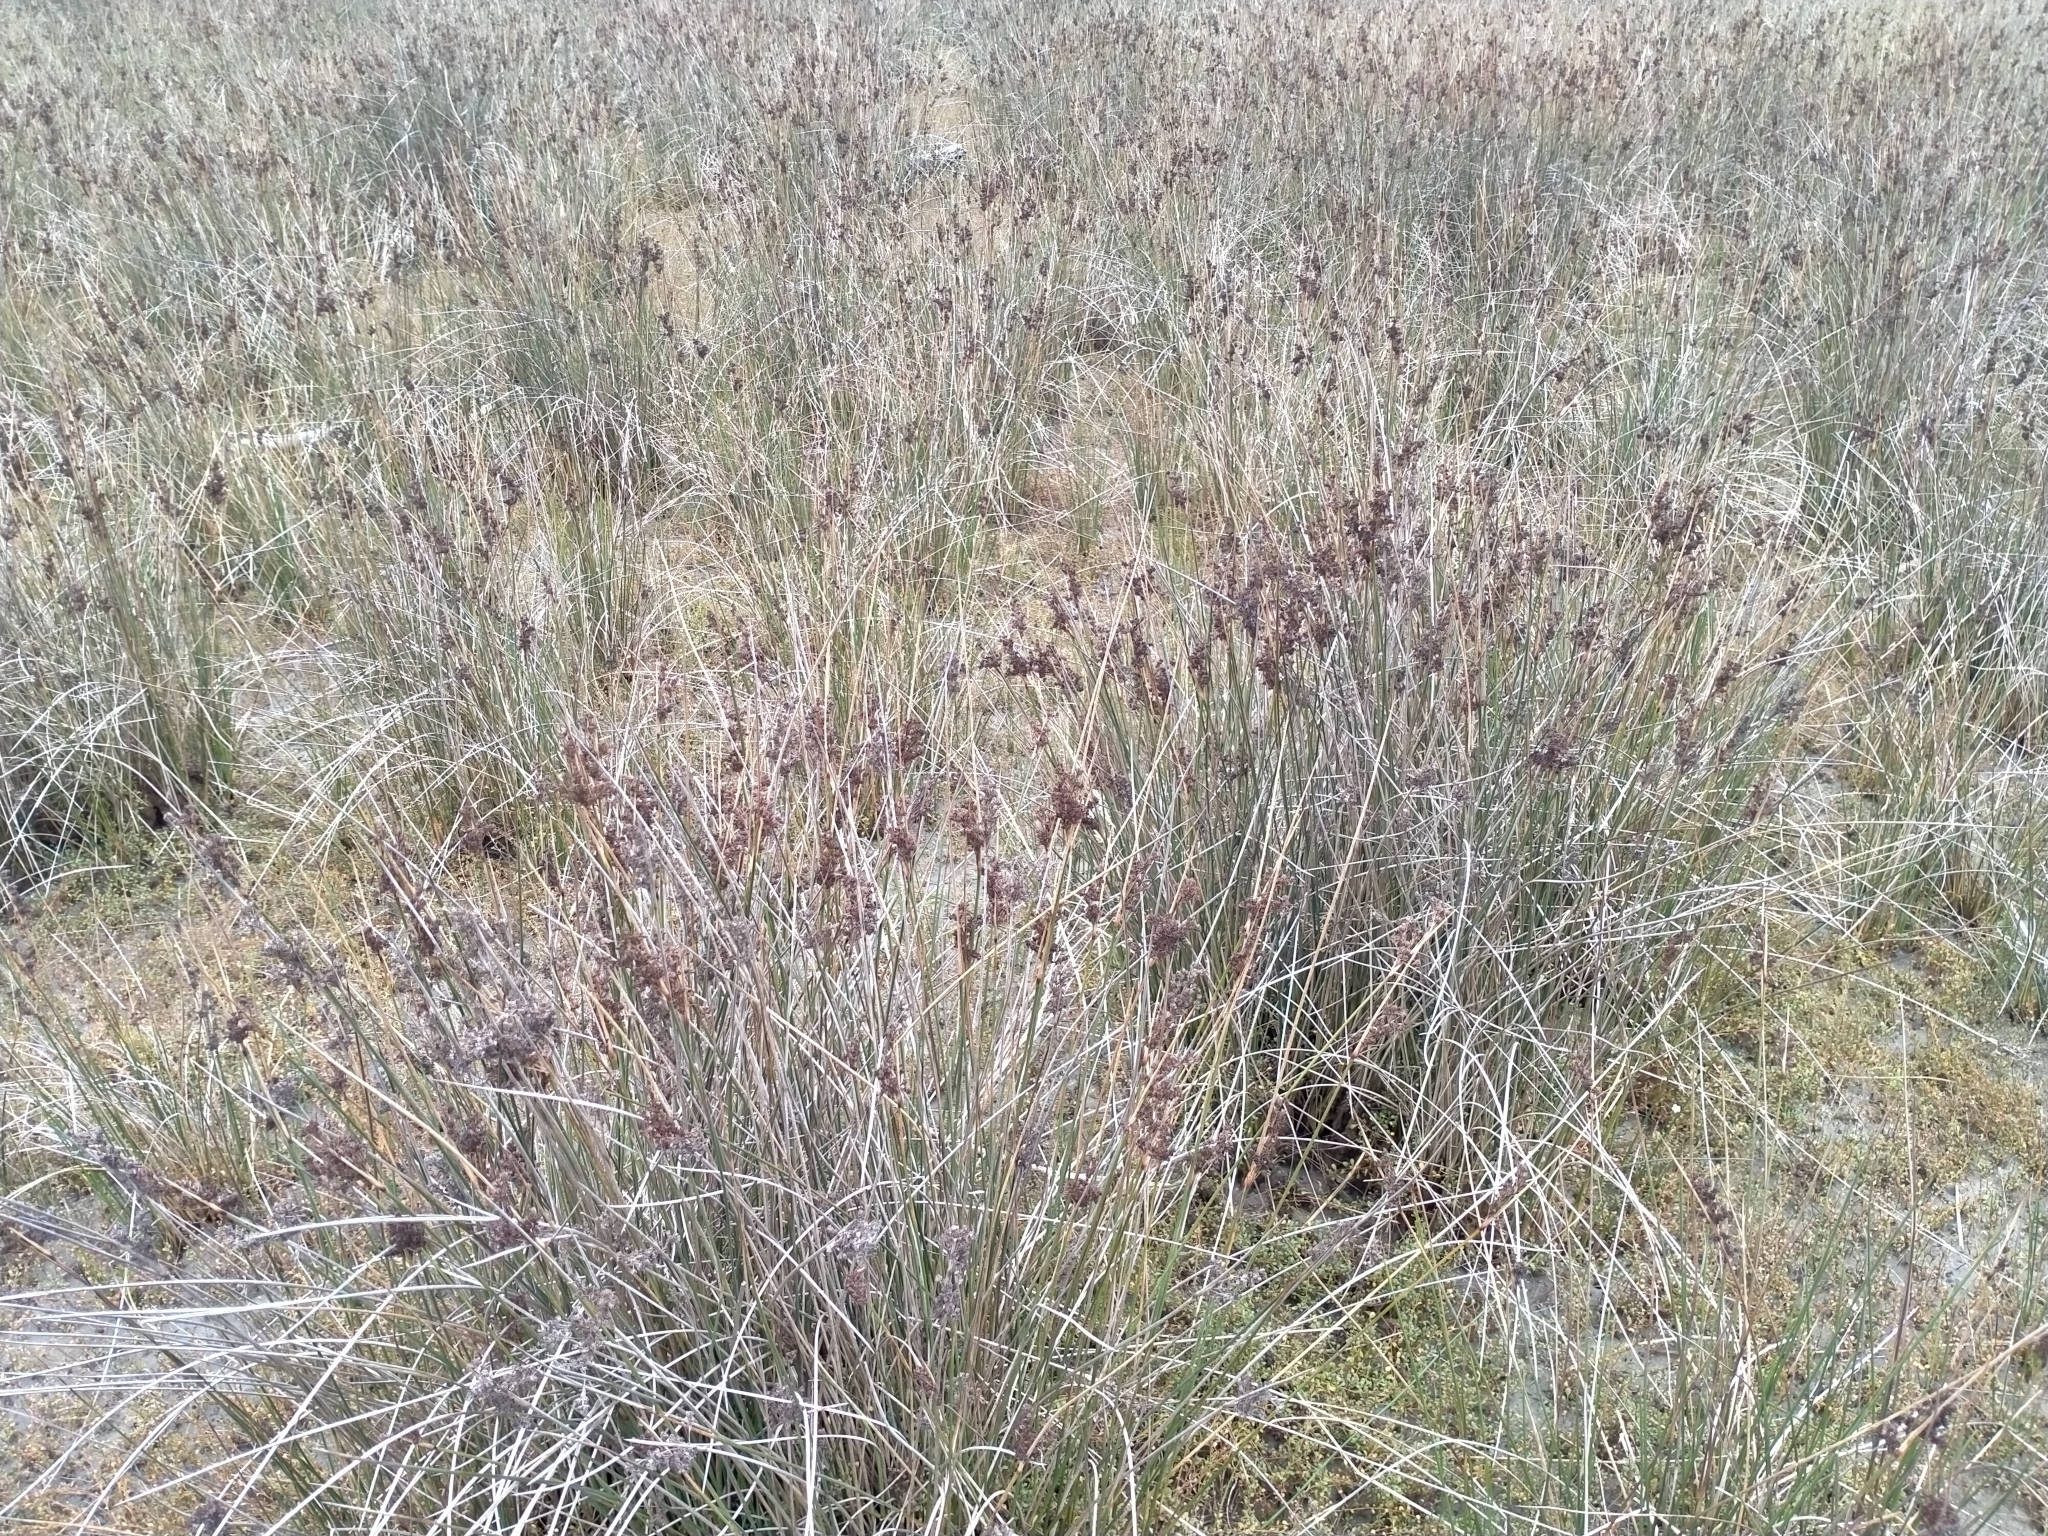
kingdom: Plantae
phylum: Tracheophyta
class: Liliopsida
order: Poales
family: Juncaceae
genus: Juncus
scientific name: Juncus kraussii
